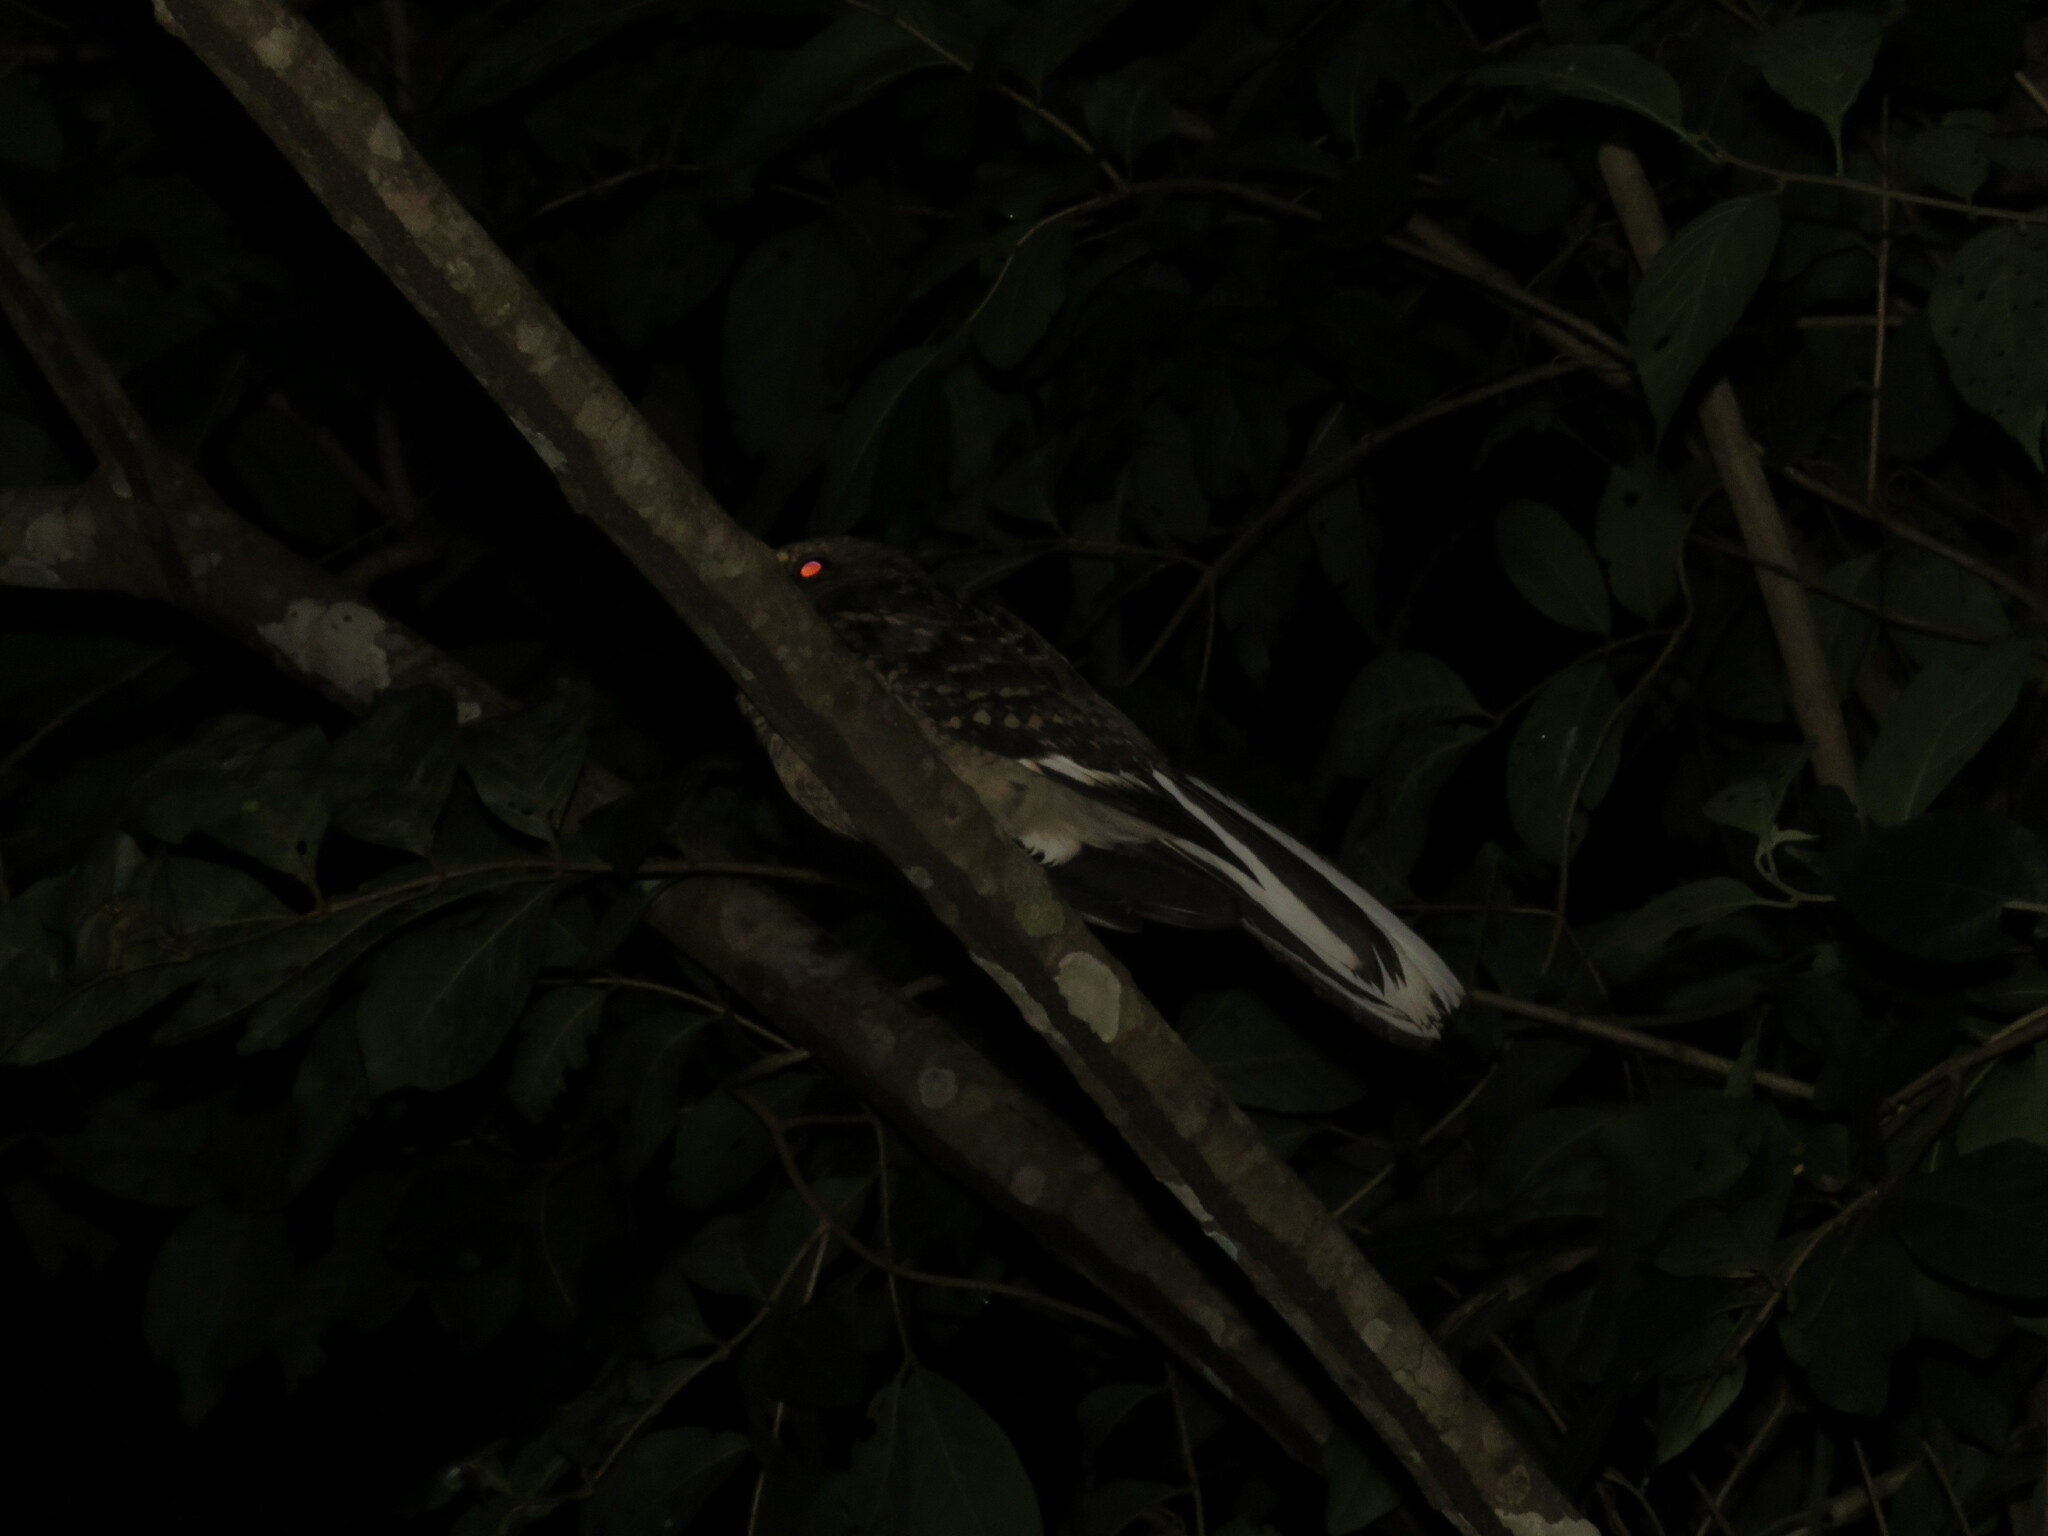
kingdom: Animalia
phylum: Chordata
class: Aves
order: Caprimulgiformes
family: Caprimulgidae
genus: Nyctidromus
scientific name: Nyctidromus albicollis
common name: Pauraque
